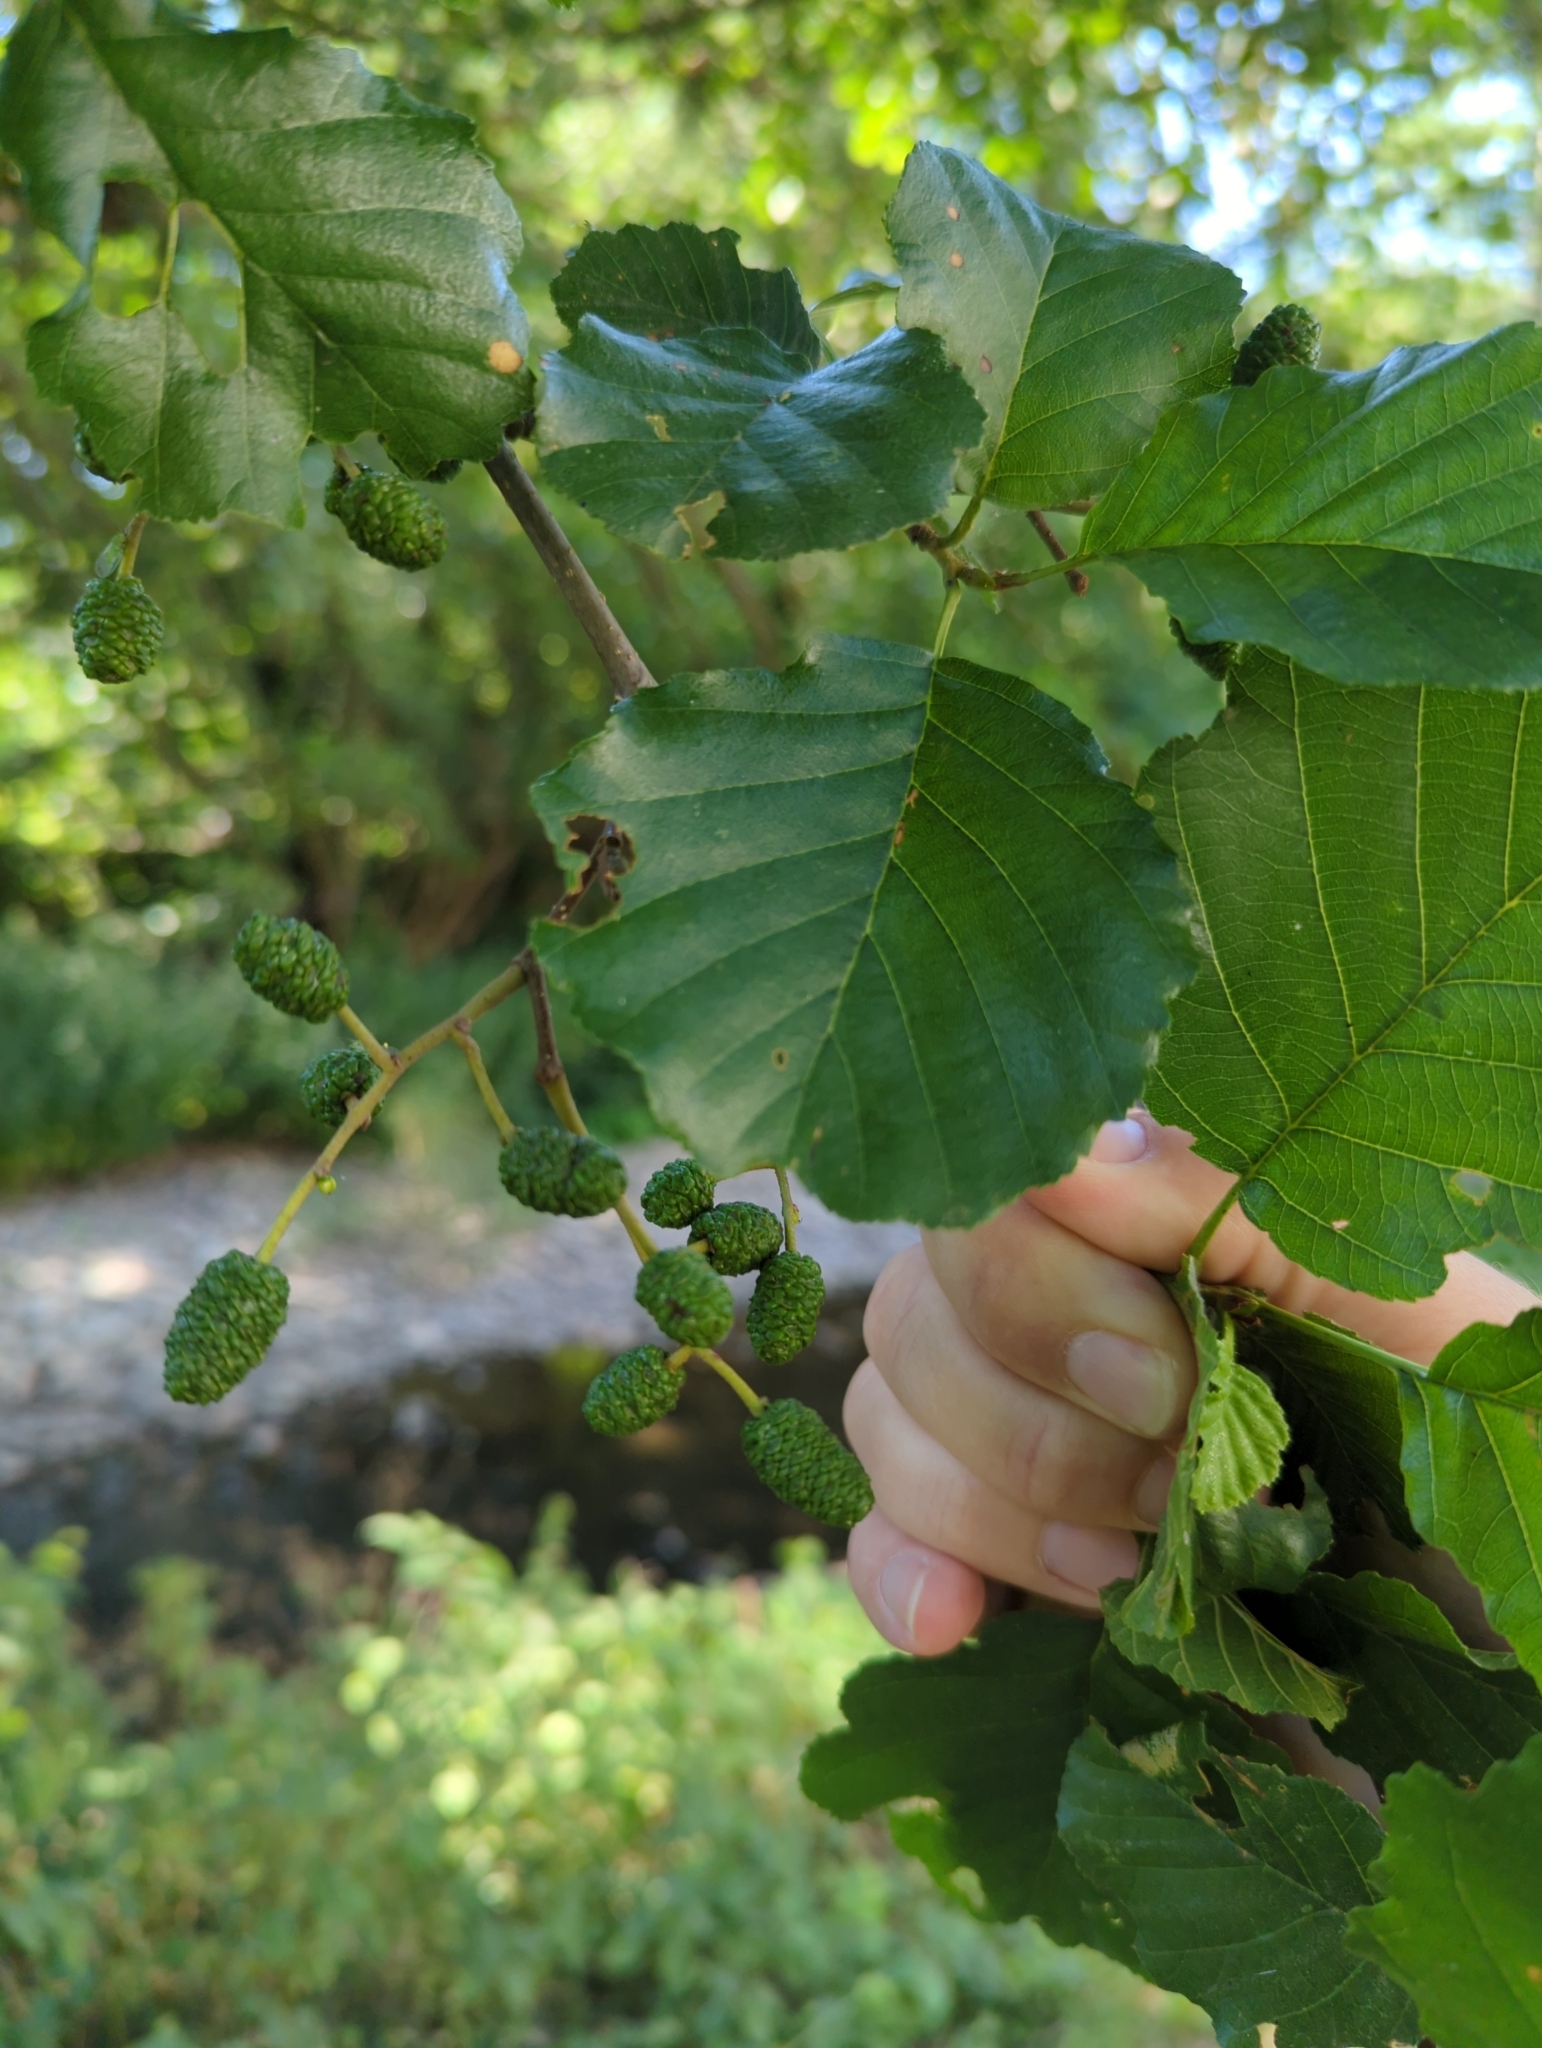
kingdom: Plantae
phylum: Tracheophyta
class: Magnoliopsida
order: Fagales
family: Betulaceae
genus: Alnus
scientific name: Alnus glutinosa
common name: Black alder
